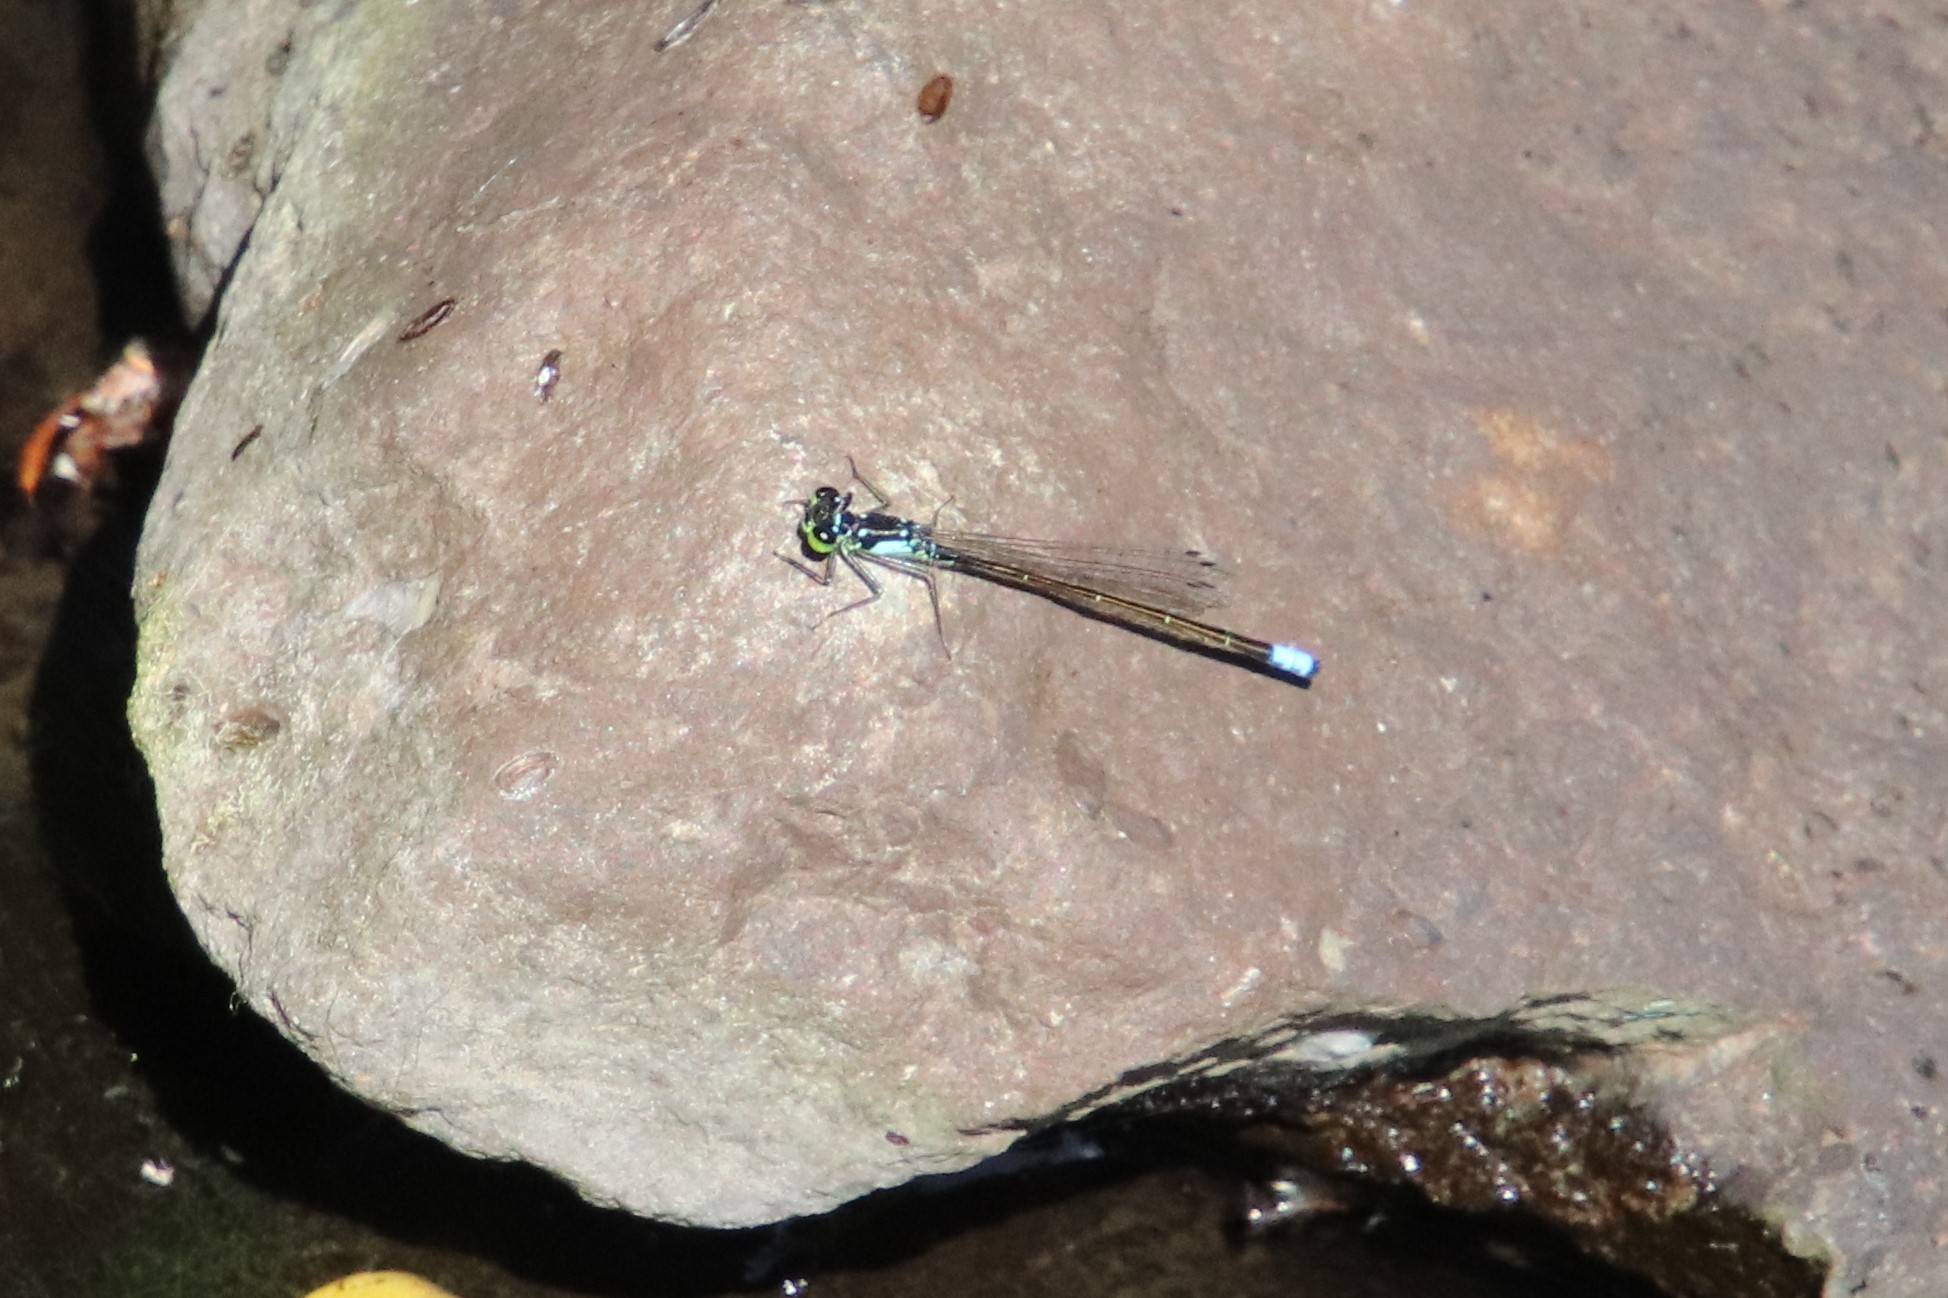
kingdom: Animalia
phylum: Arthropoda
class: Insecta
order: Odonata
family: Coenagrionidae
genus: Ischnura
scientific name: Ischnura cervula
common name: Pacific forktail
